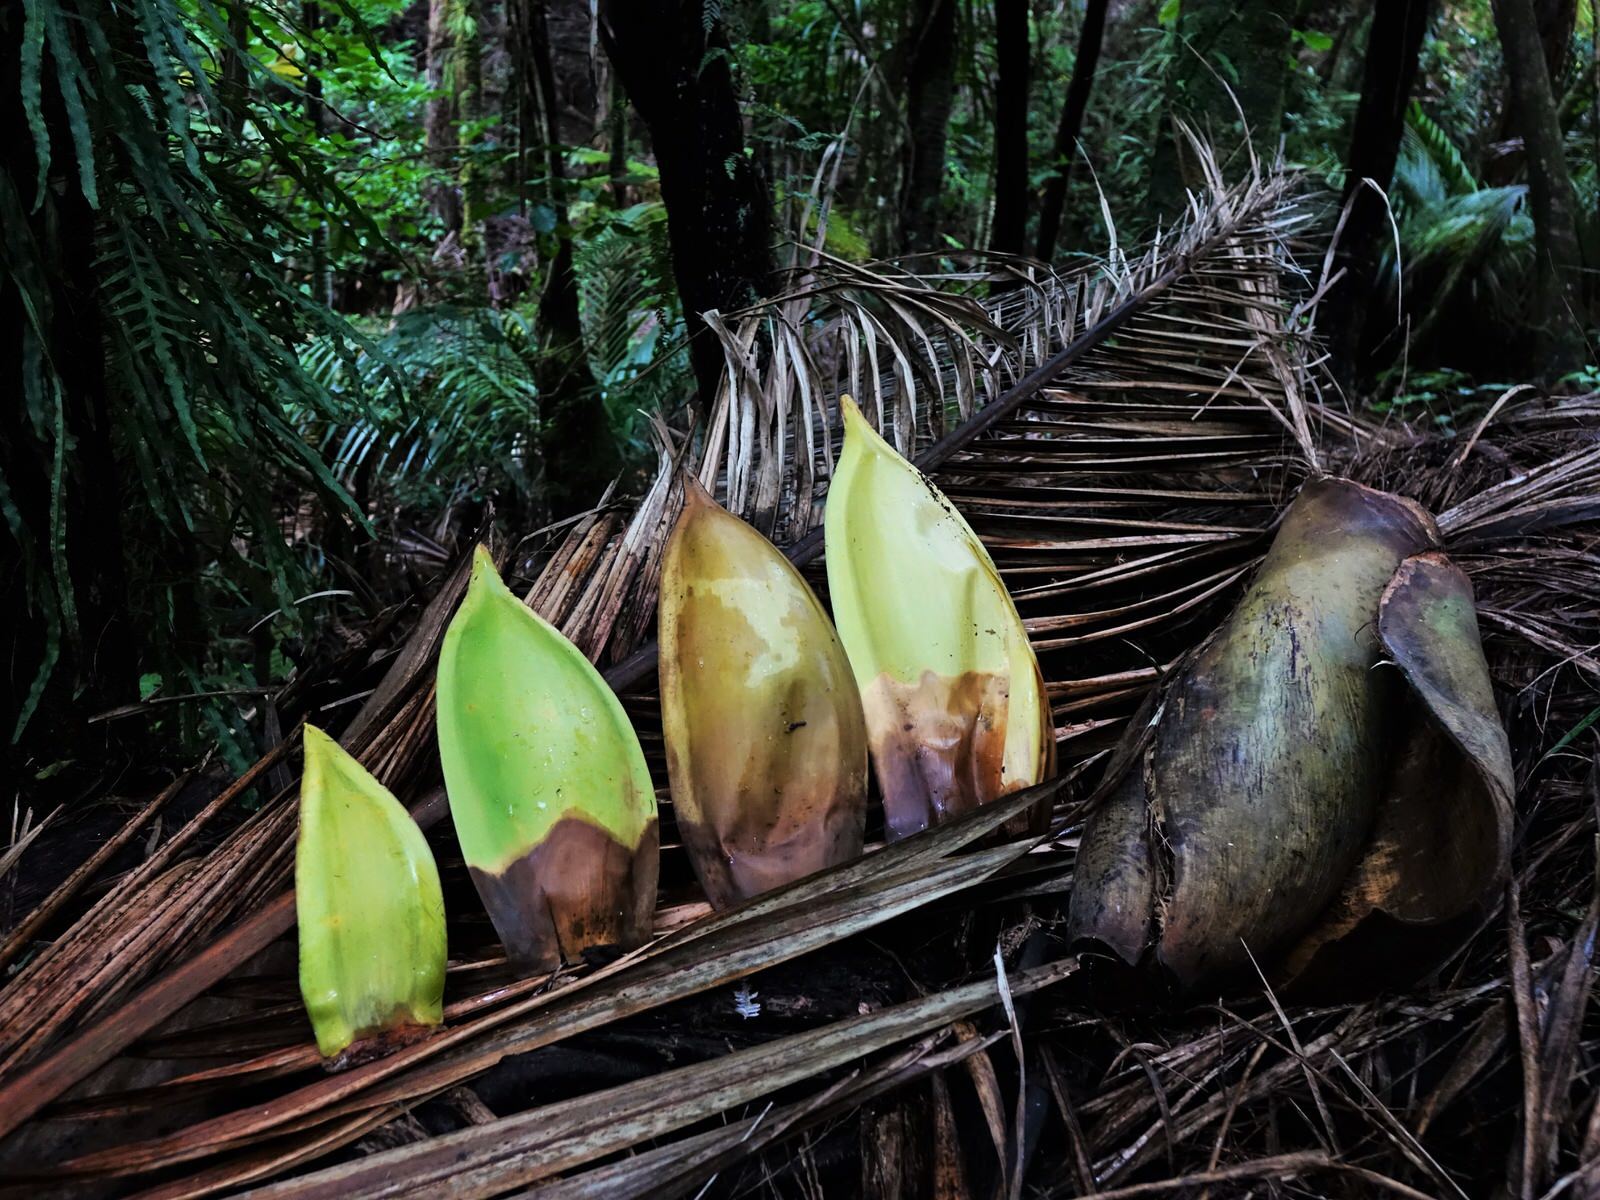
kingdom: Plantae
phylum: Tracheophyta
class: Liliopsida
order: Arecales
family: Arecaceae
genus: Rhopalostylis
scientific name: Rhopalostylis sapida
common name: Feather-duster palm
